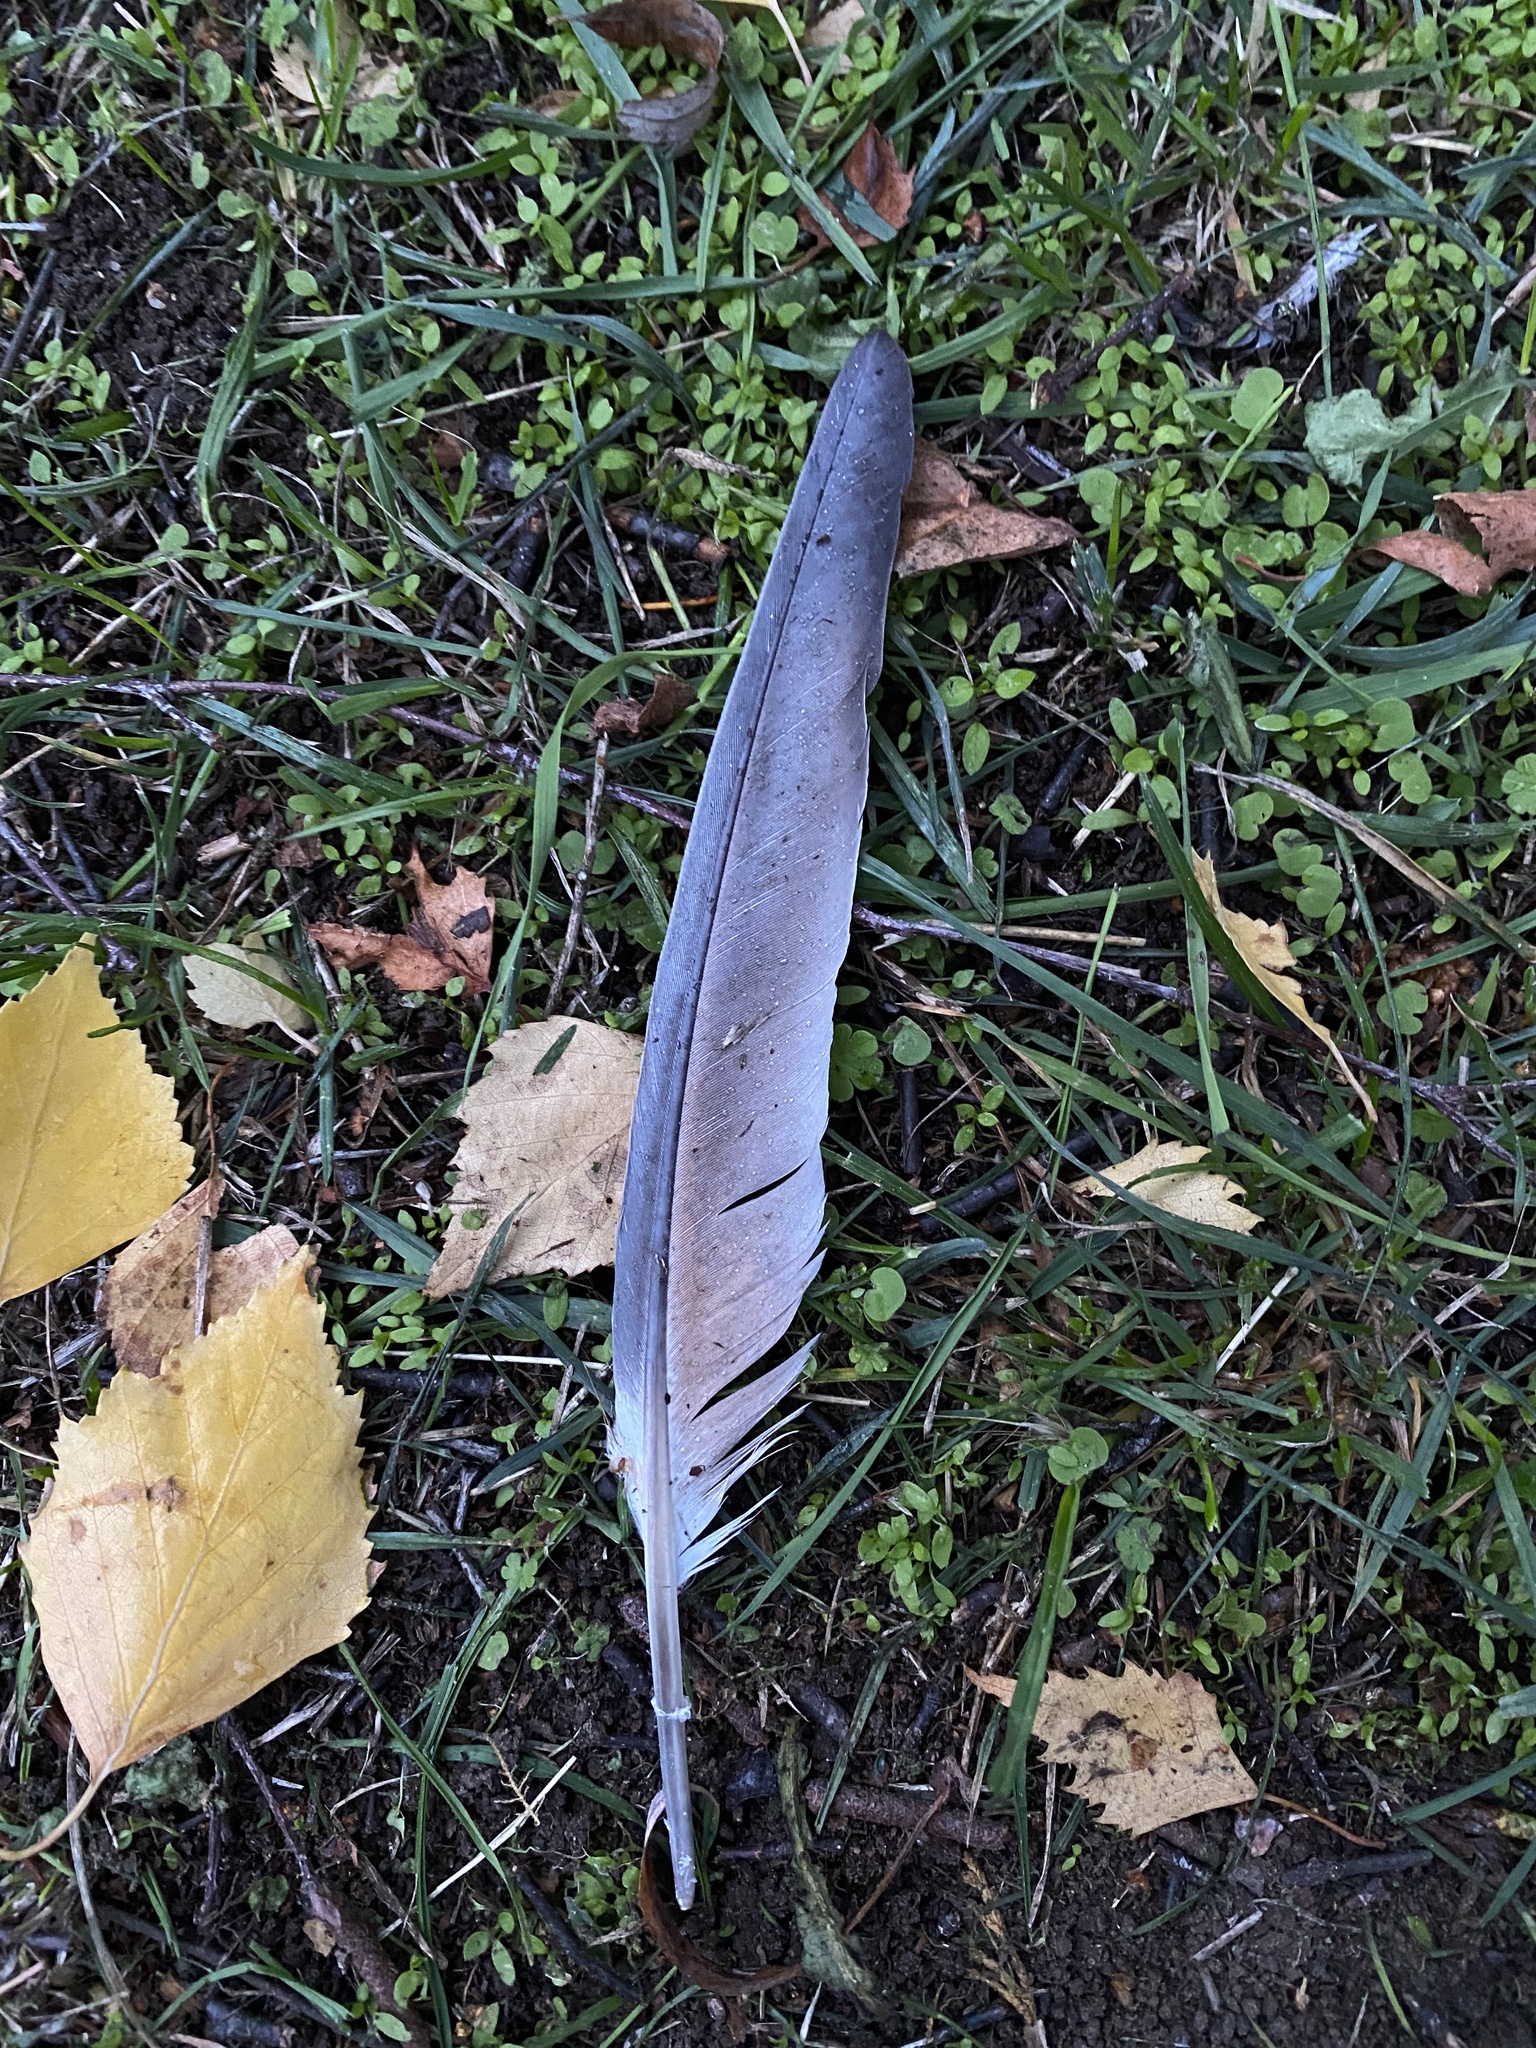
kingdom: Animalia
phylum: Chordata
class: Aves
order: Columbiformes
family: Columbidae
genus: Columba
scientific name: Columba palumbus
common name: Common wood pigeon
